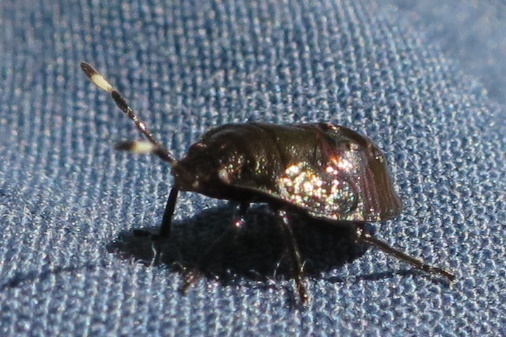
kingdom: Animalia
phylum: Arthropoda
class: Insecta
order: Hemiptera
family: Pentatomidae
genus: Monteithiella
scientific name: Monteithiella
